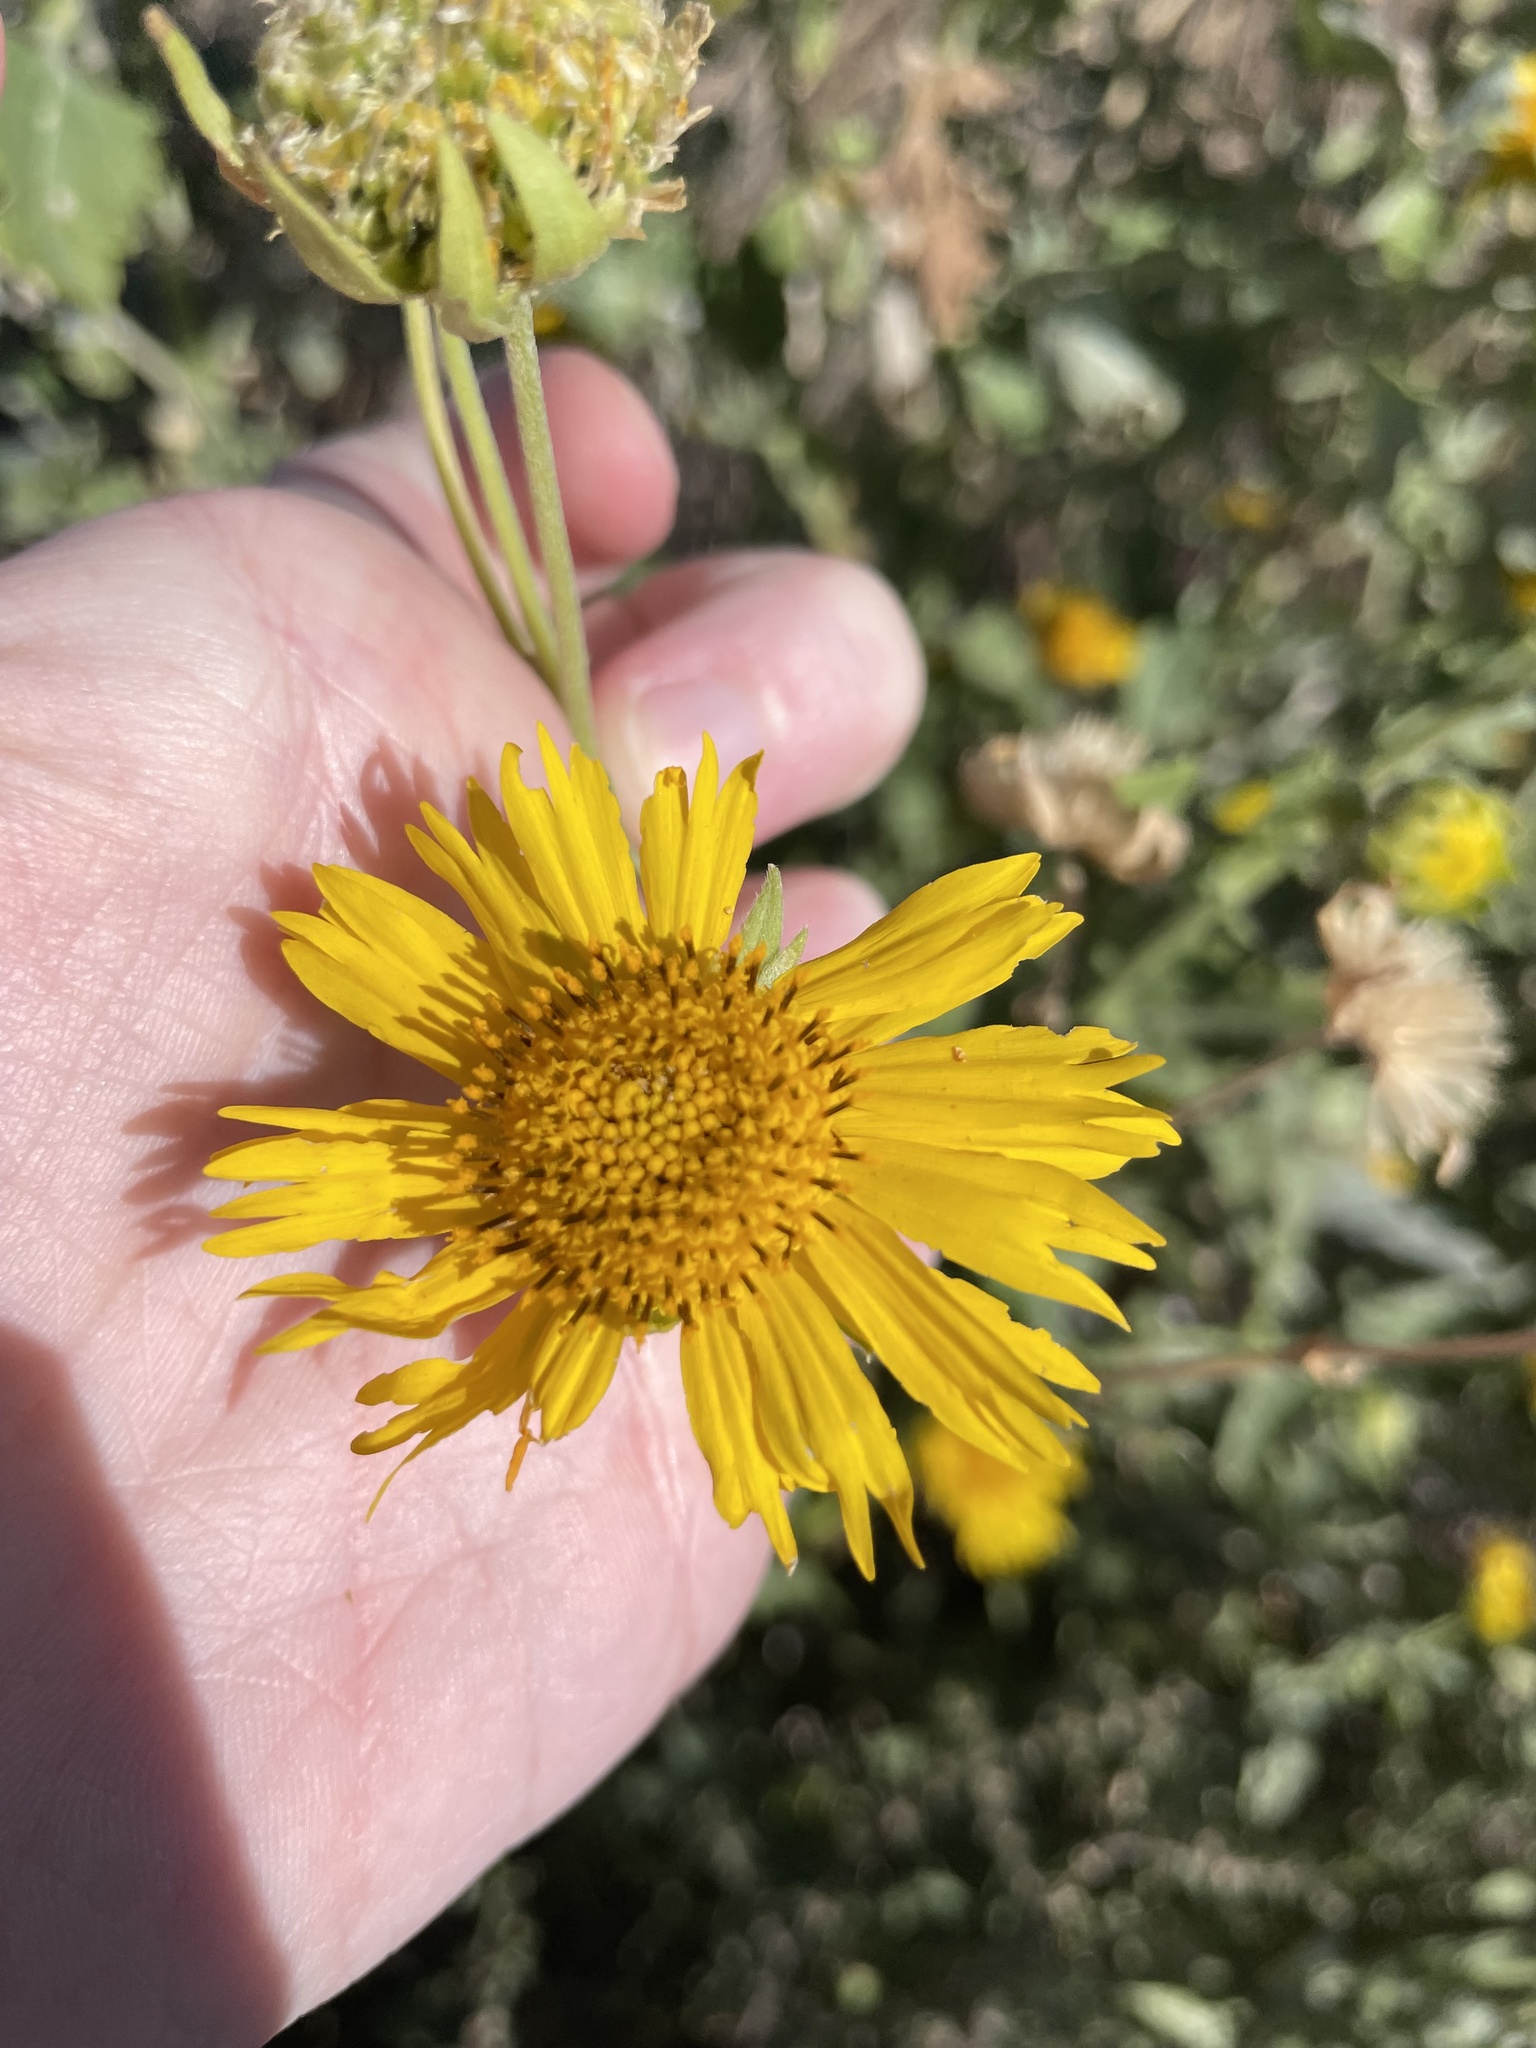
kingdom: Plantae
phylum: Tracheophyta
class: Magnoliopsida
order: Asterales
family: Asteraceae
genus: Verbesina
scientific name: Verbesina encelioides
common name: Golden crownbeard
